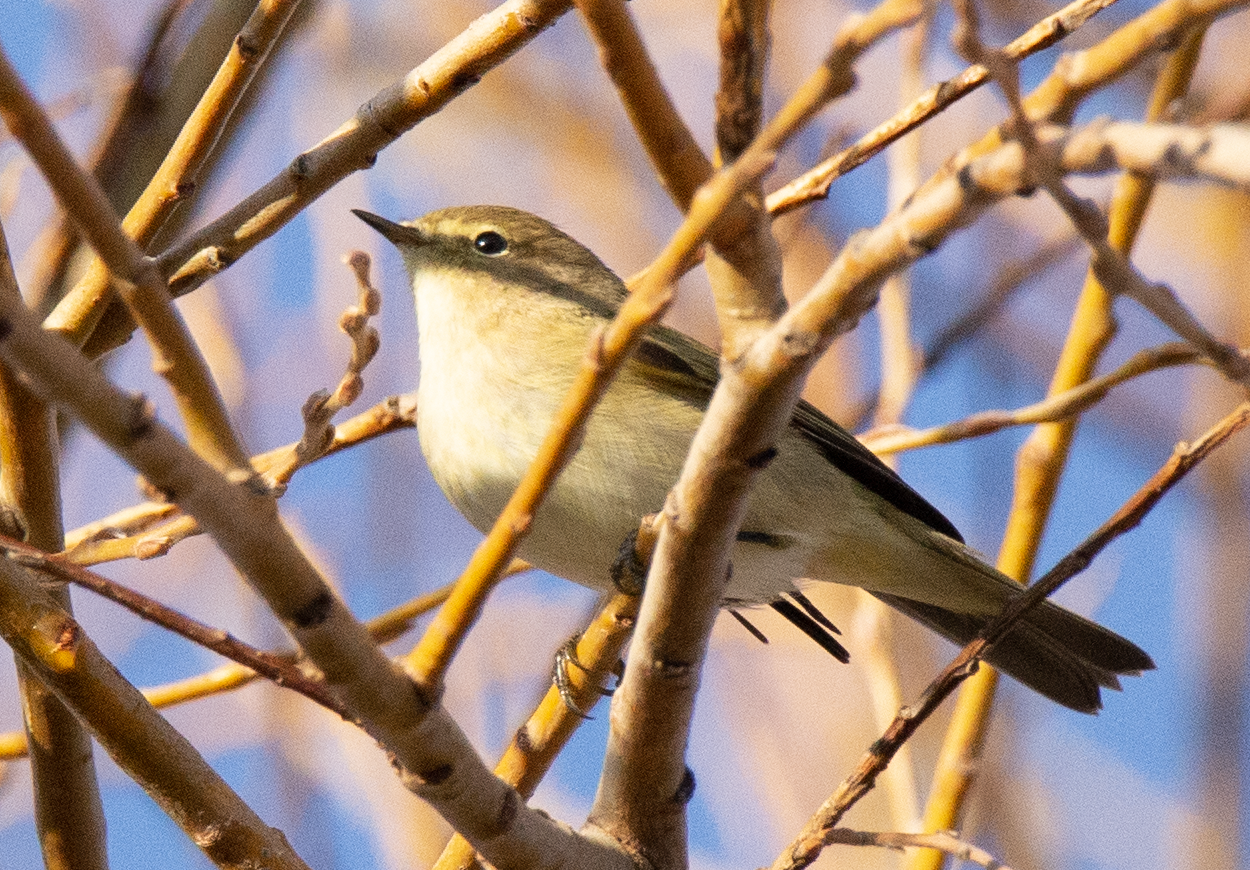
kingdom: Animalia
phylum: Chordata
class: Aves
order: Passeriformes
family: Phylloscopidae
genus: Phylloscopus
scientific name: Phylloscopus collybita
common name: Common chiffchaff
